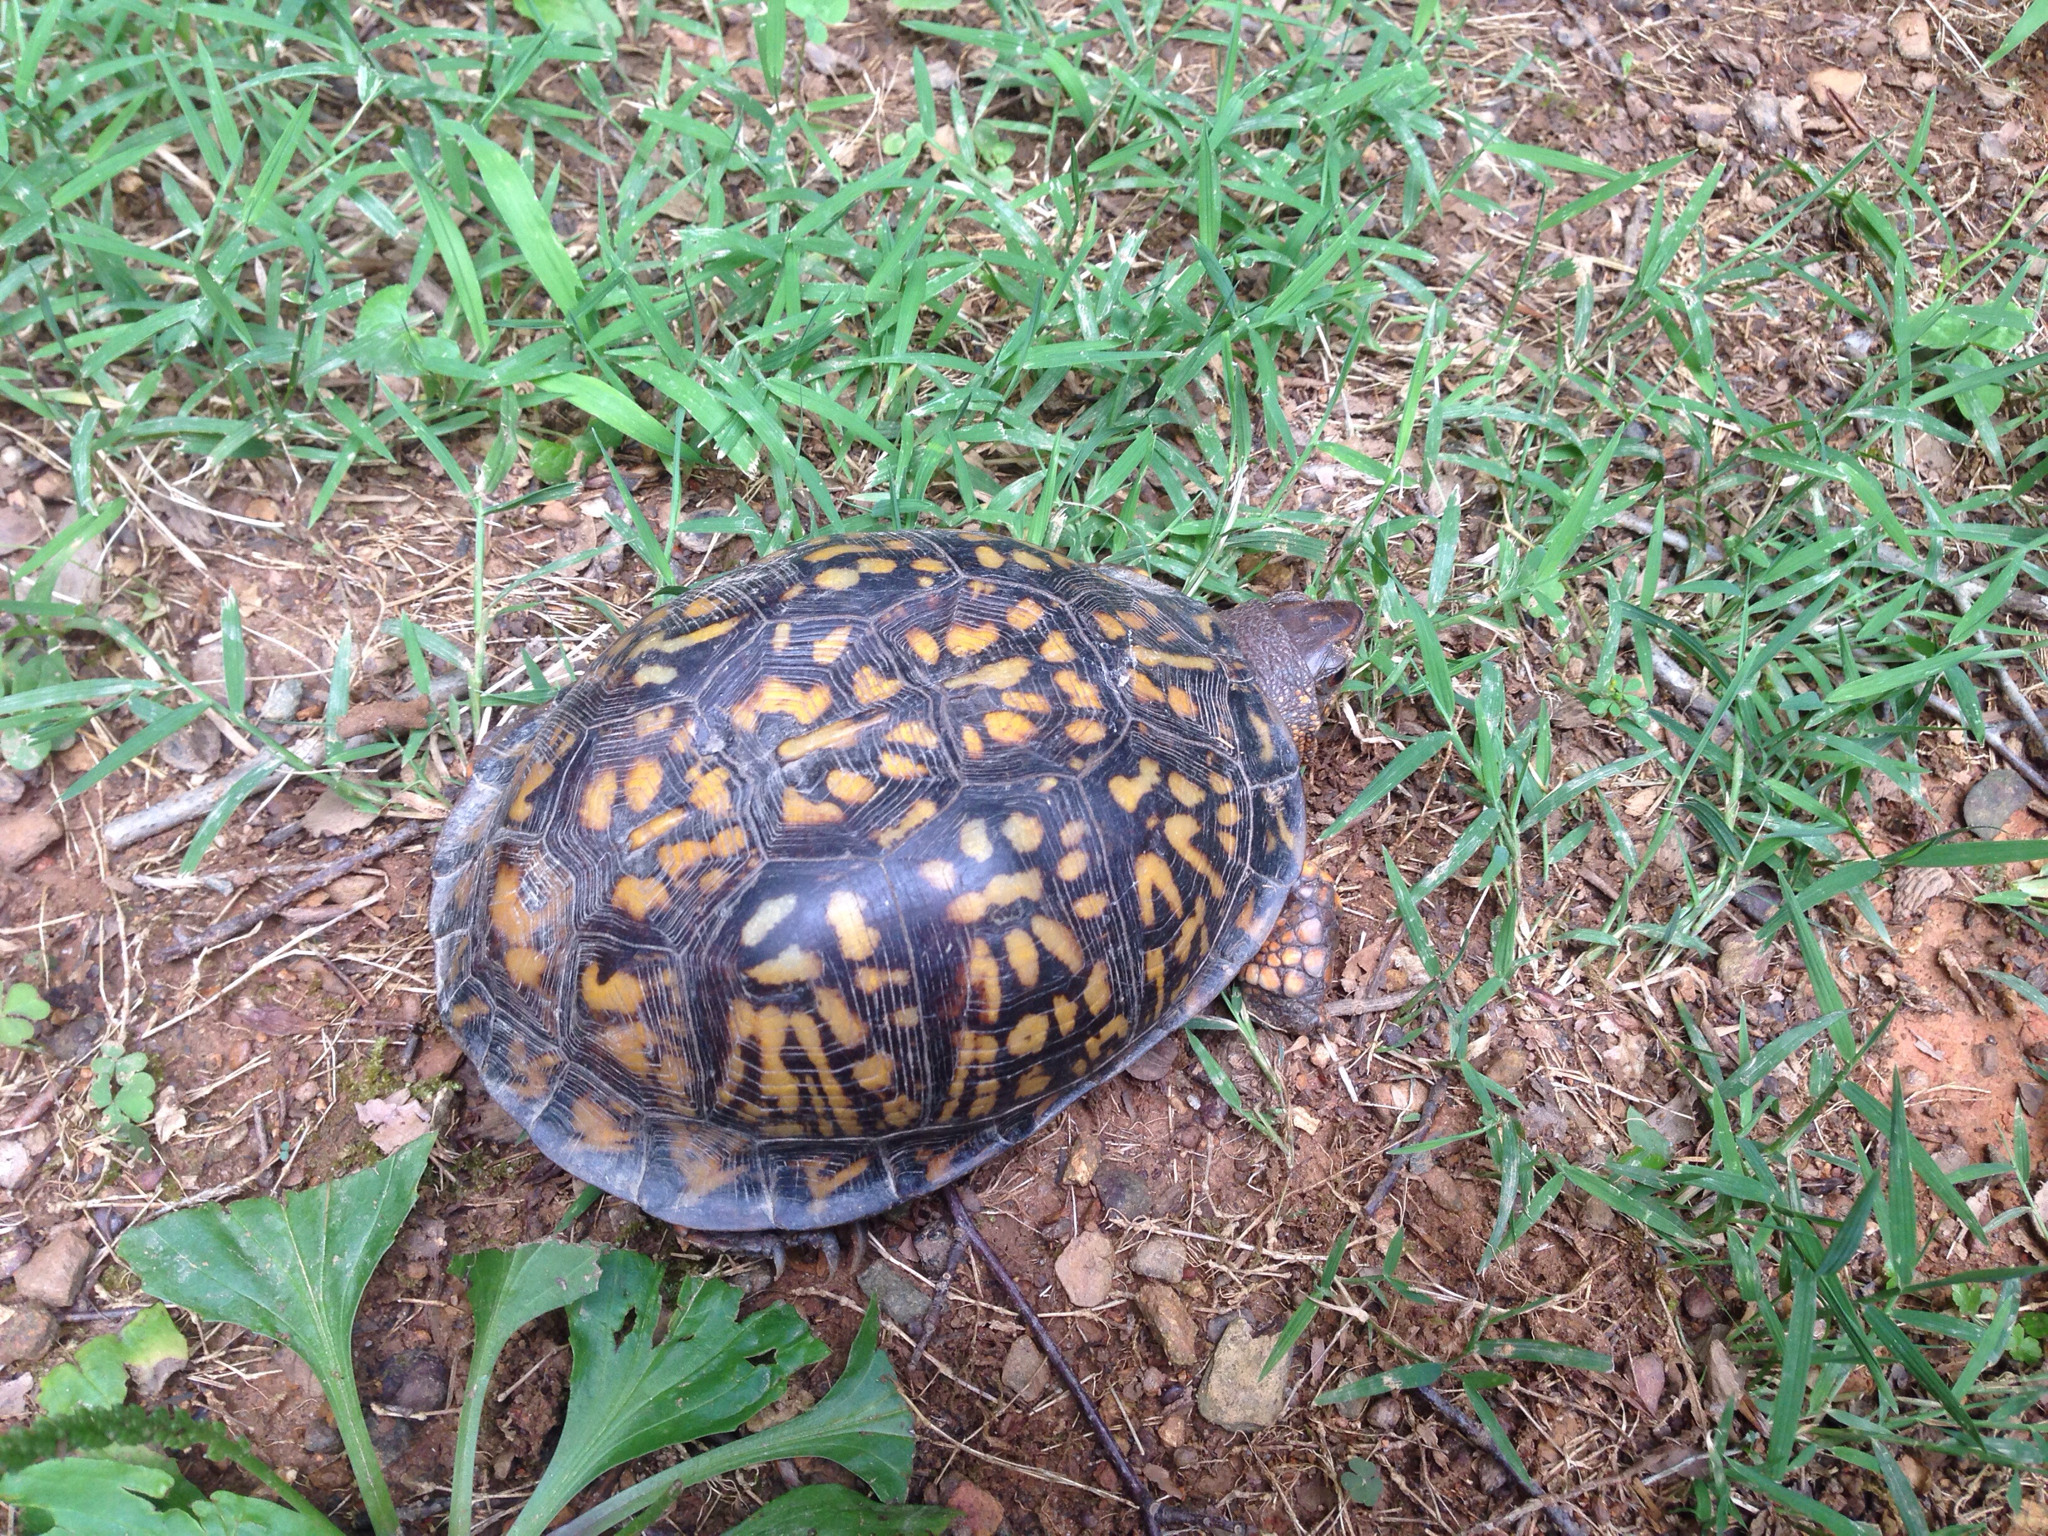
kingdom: Animalia
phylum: Chordata
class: Testudines
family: Emydidae
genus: Terrapene
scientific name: Terrapene carolina
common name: Common box turtle
